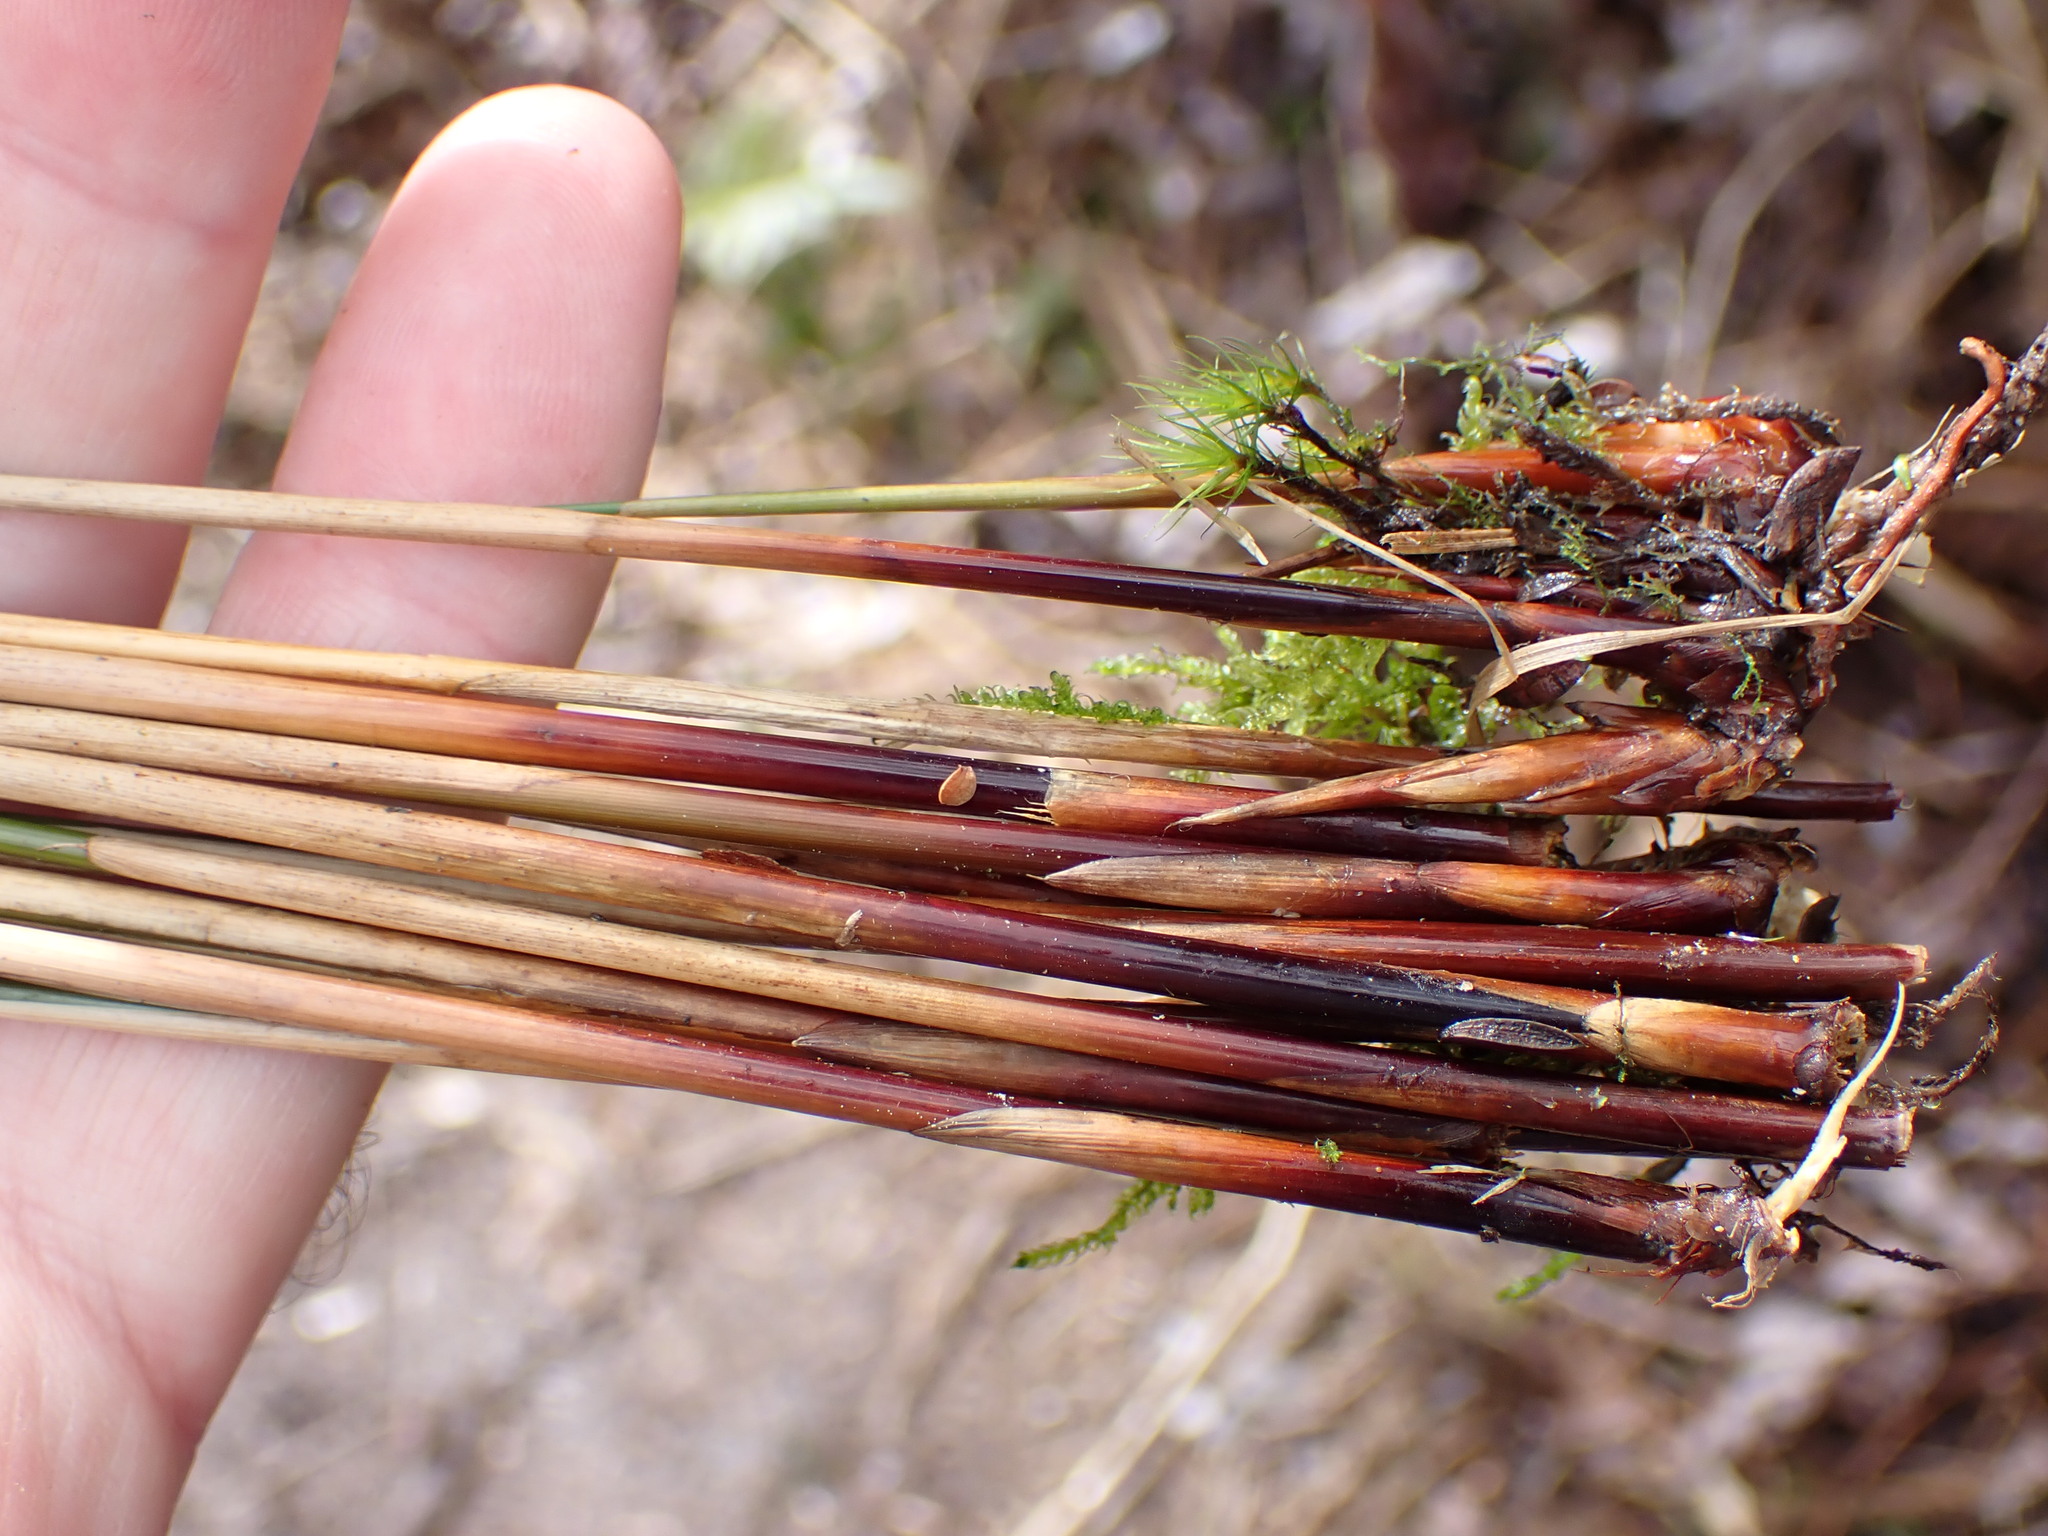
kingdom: Plantae
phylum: Tracheophyta
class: Liliopsida
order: Poales
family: Juncaceae
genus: Juncus
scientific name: Juncus edgariae
